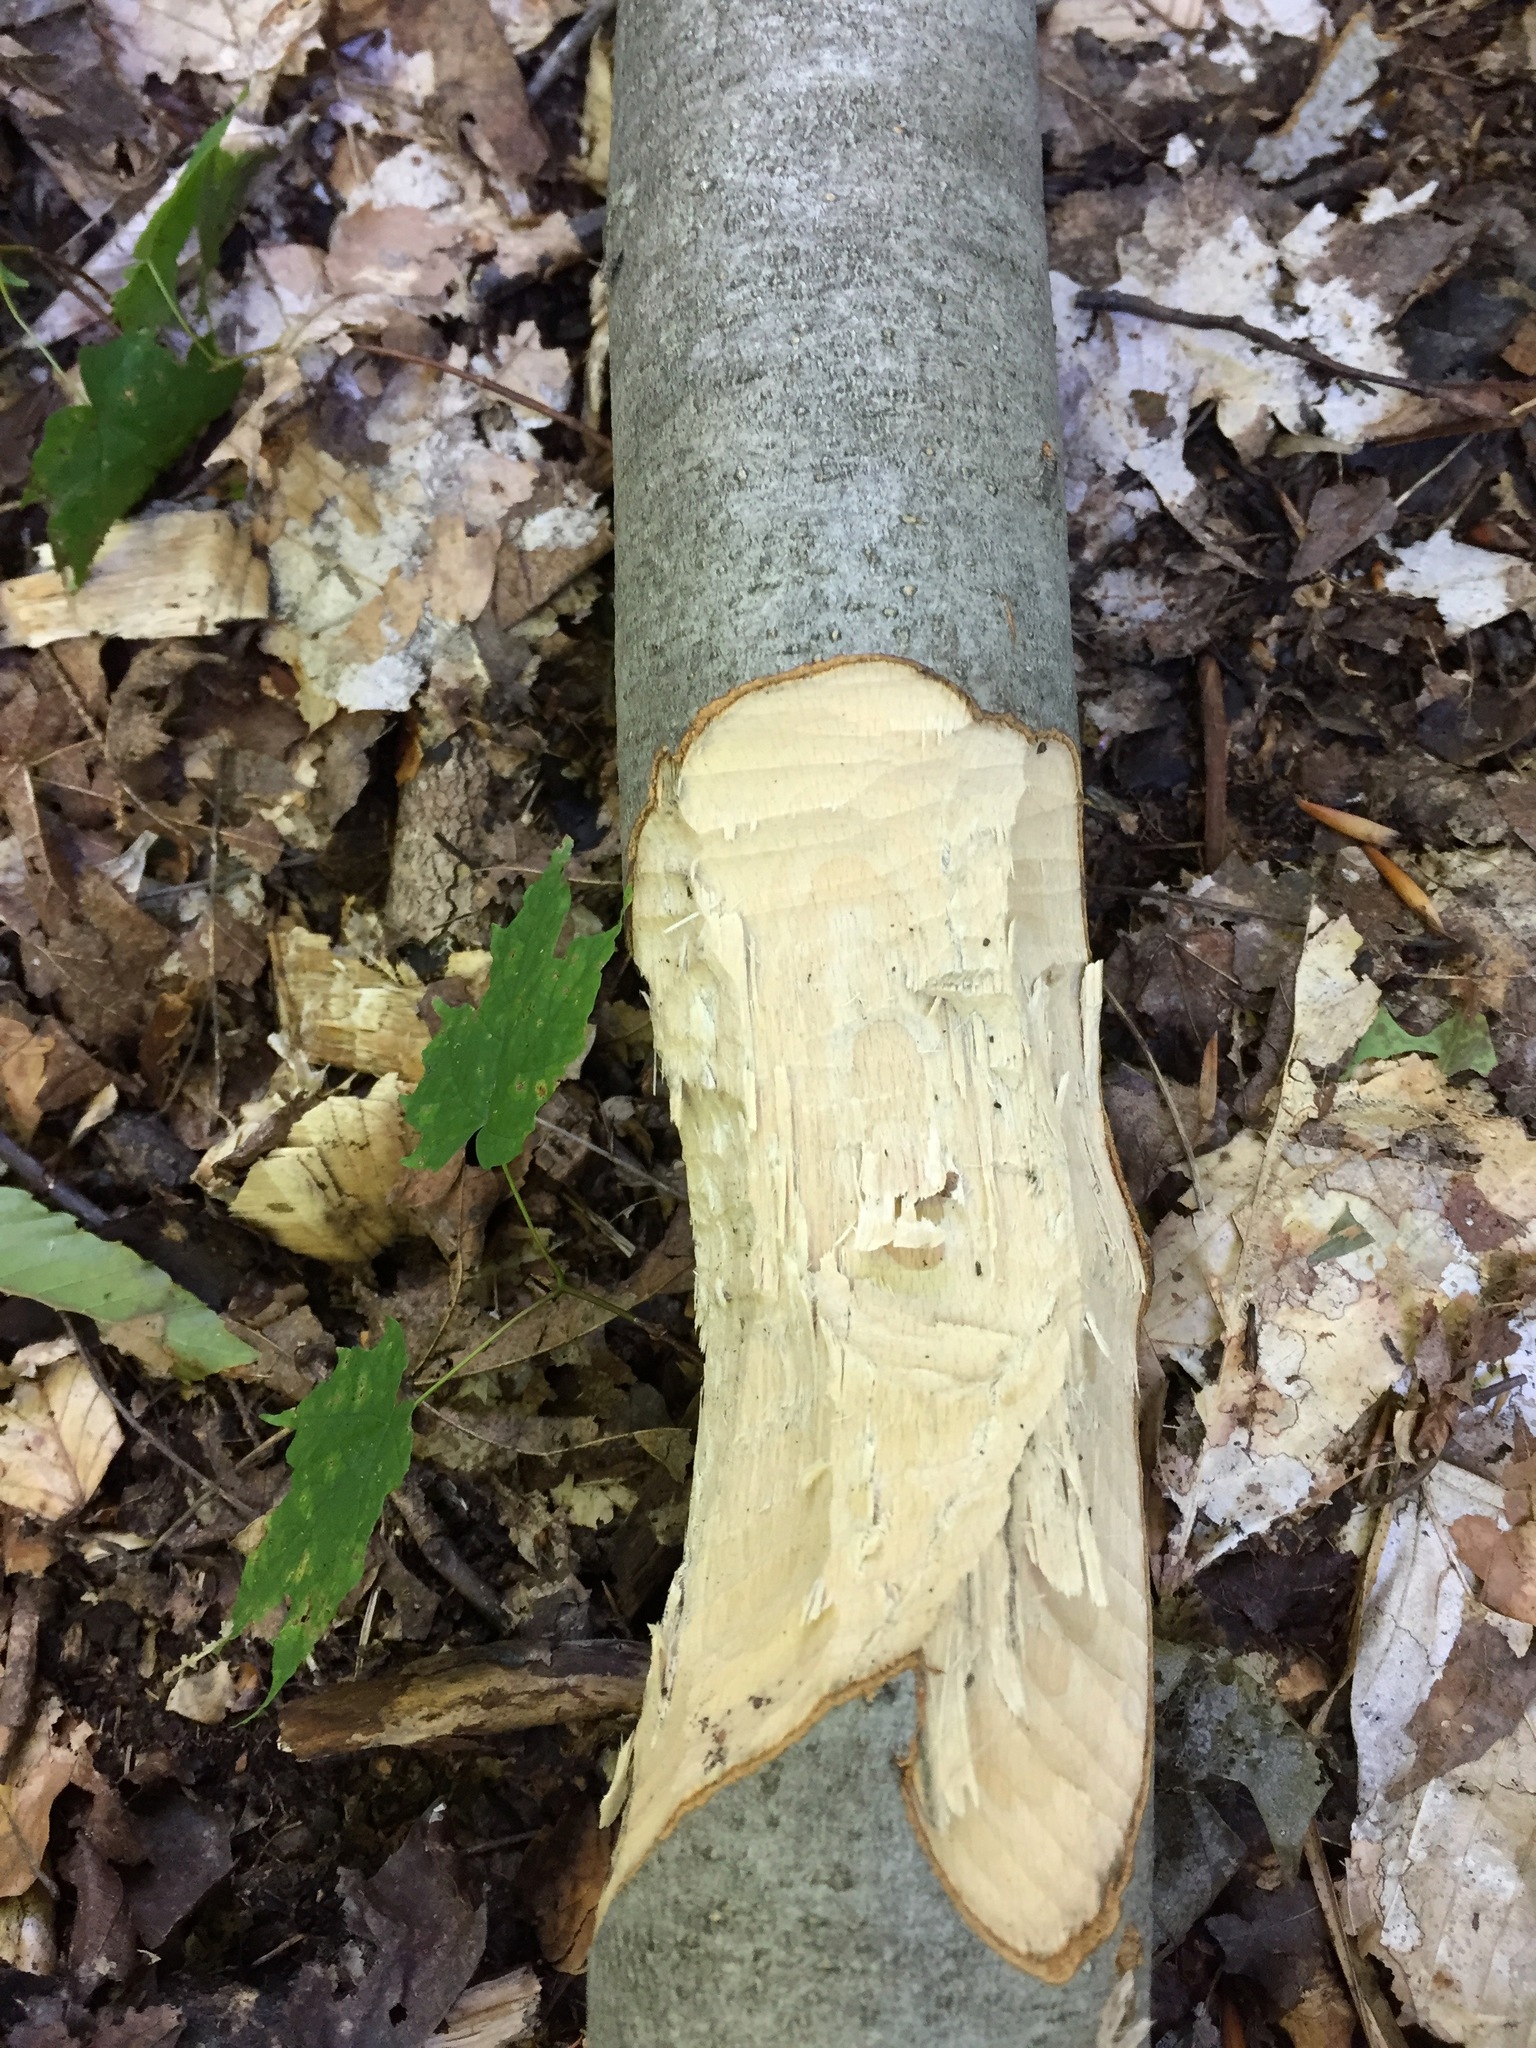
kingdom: Animalia
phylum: Chordata
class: Mammalia
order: Rodentia
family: Castoridae
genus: Castor
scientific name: Castor canadensis
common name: American beaver
